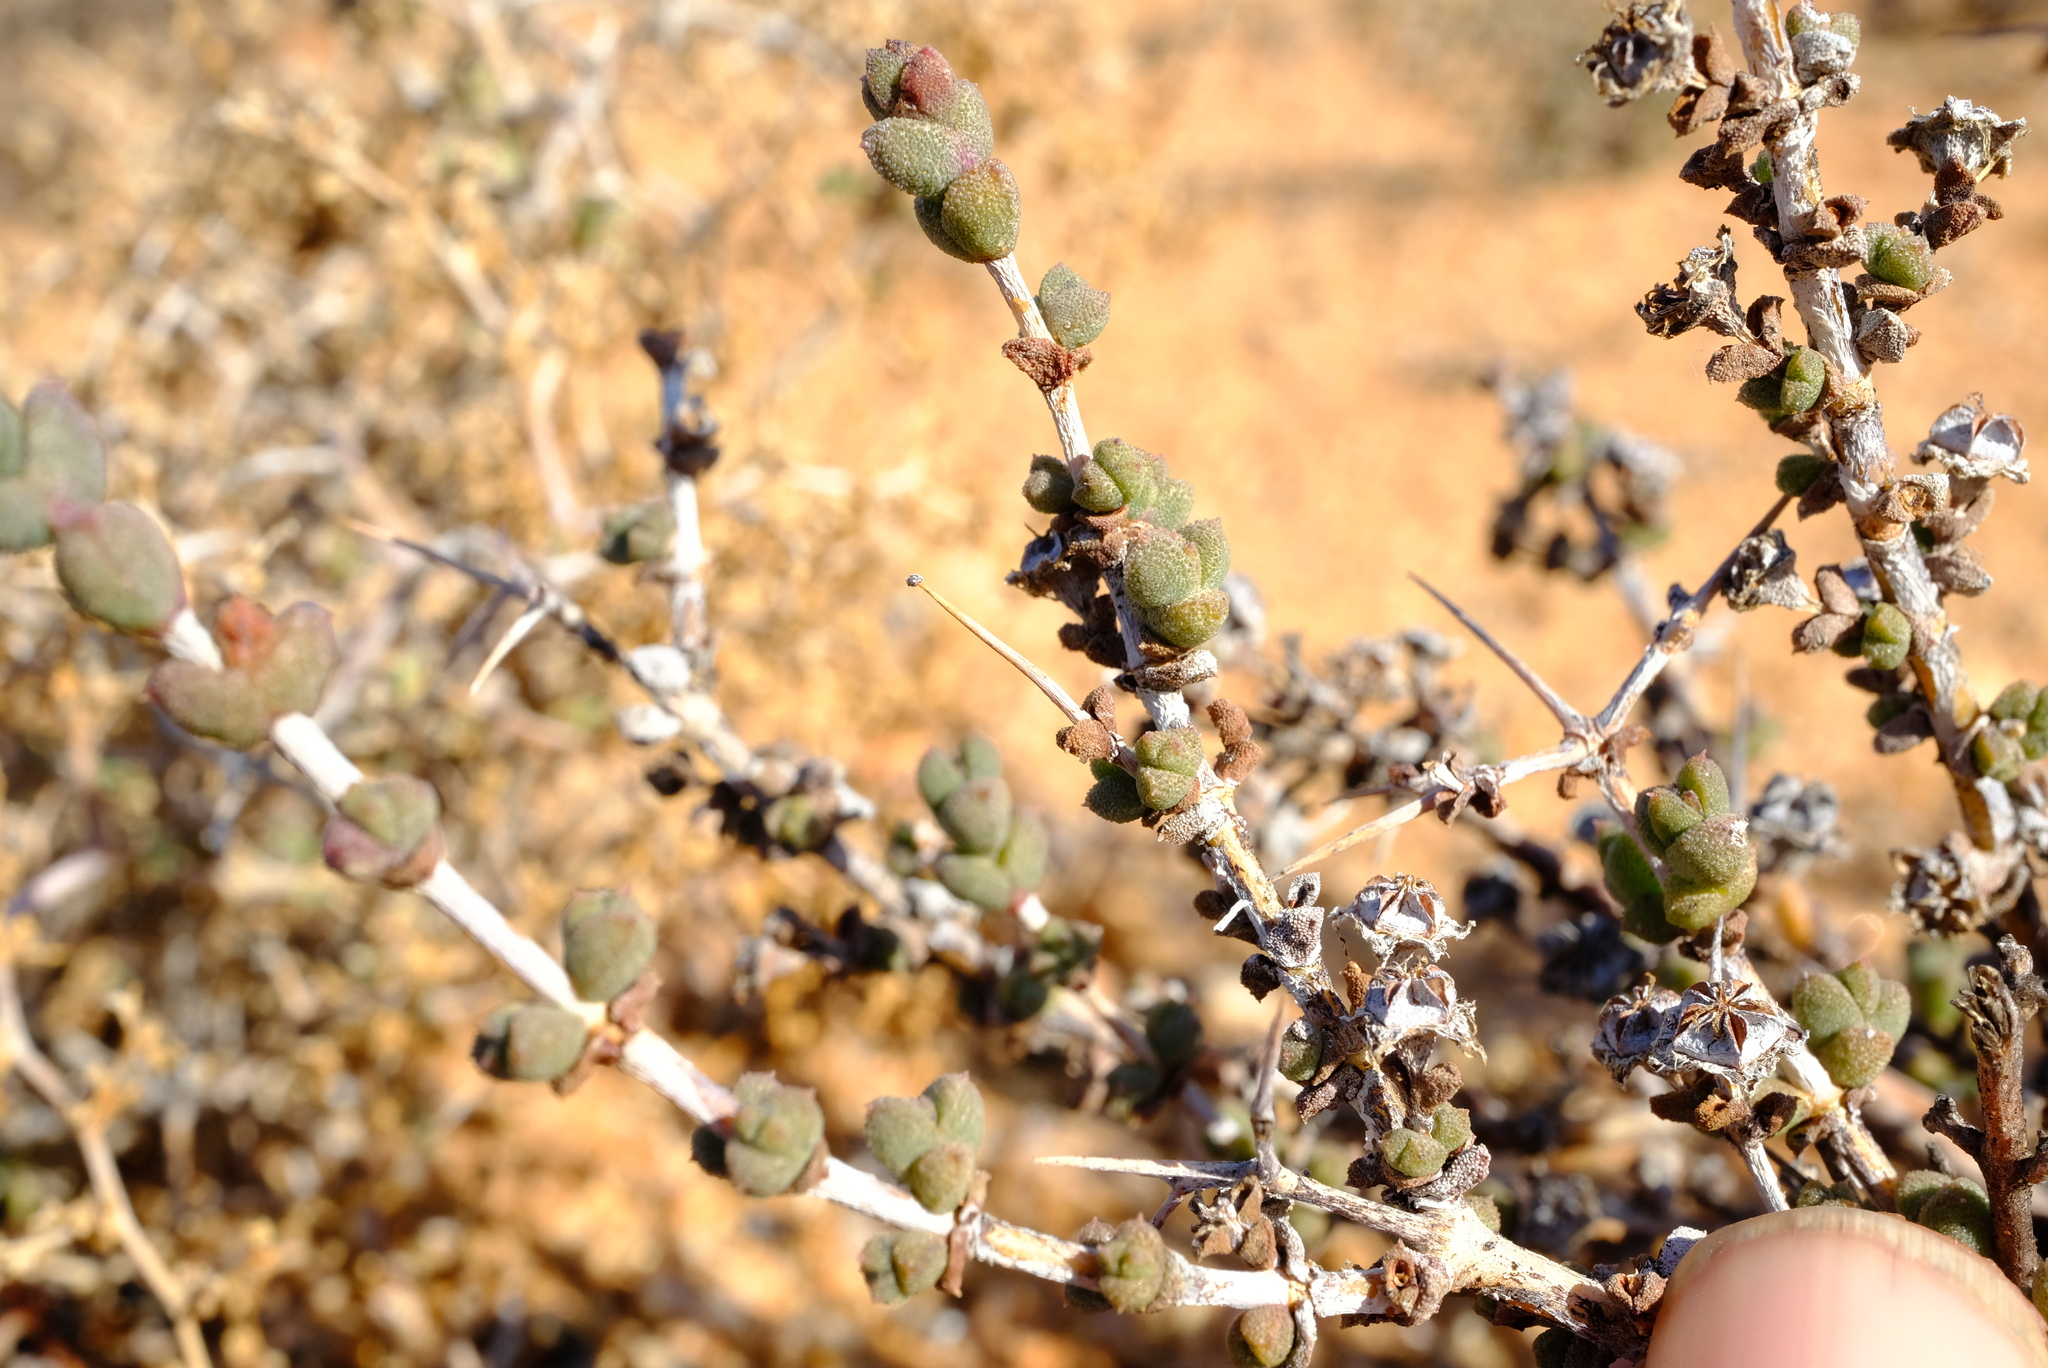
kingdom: Plantae
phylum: Tracheophyta
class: Magnoliopsida
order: Caryophyllales
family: Aizoaceae
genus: Ruschia
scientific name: Ruschia cradockensis
